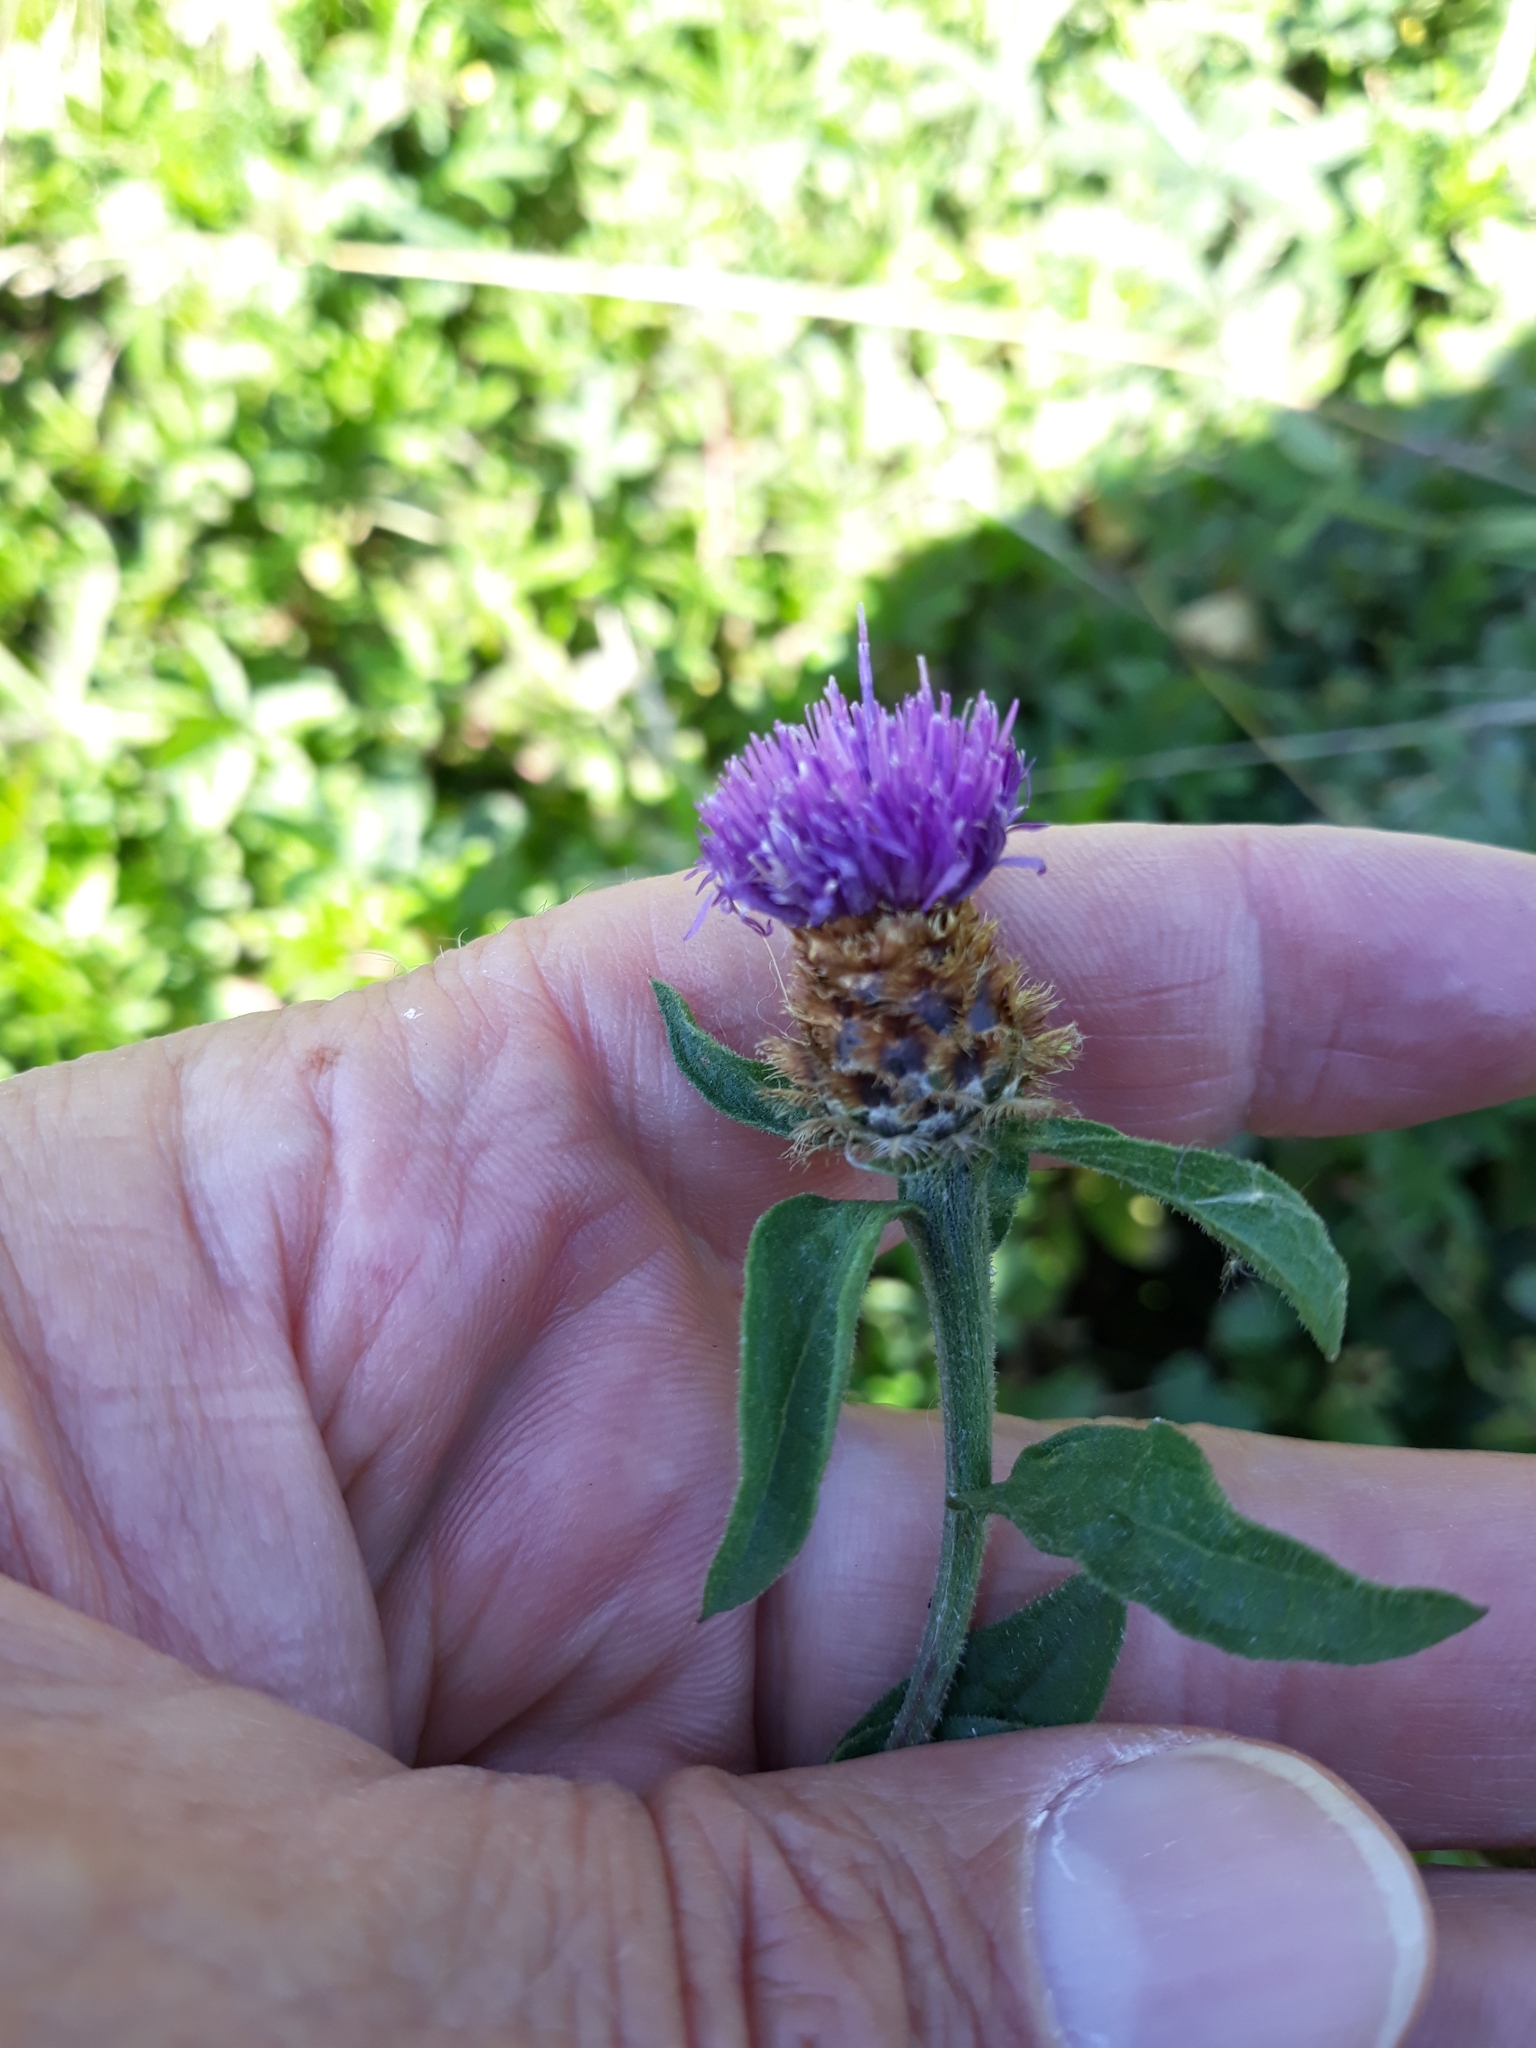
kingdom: Plantae
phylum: Tracheophyta
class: Magnoliopsida
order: Asterales
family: Asteraceae
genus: Centaurea
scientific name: Centaurea decipiens
